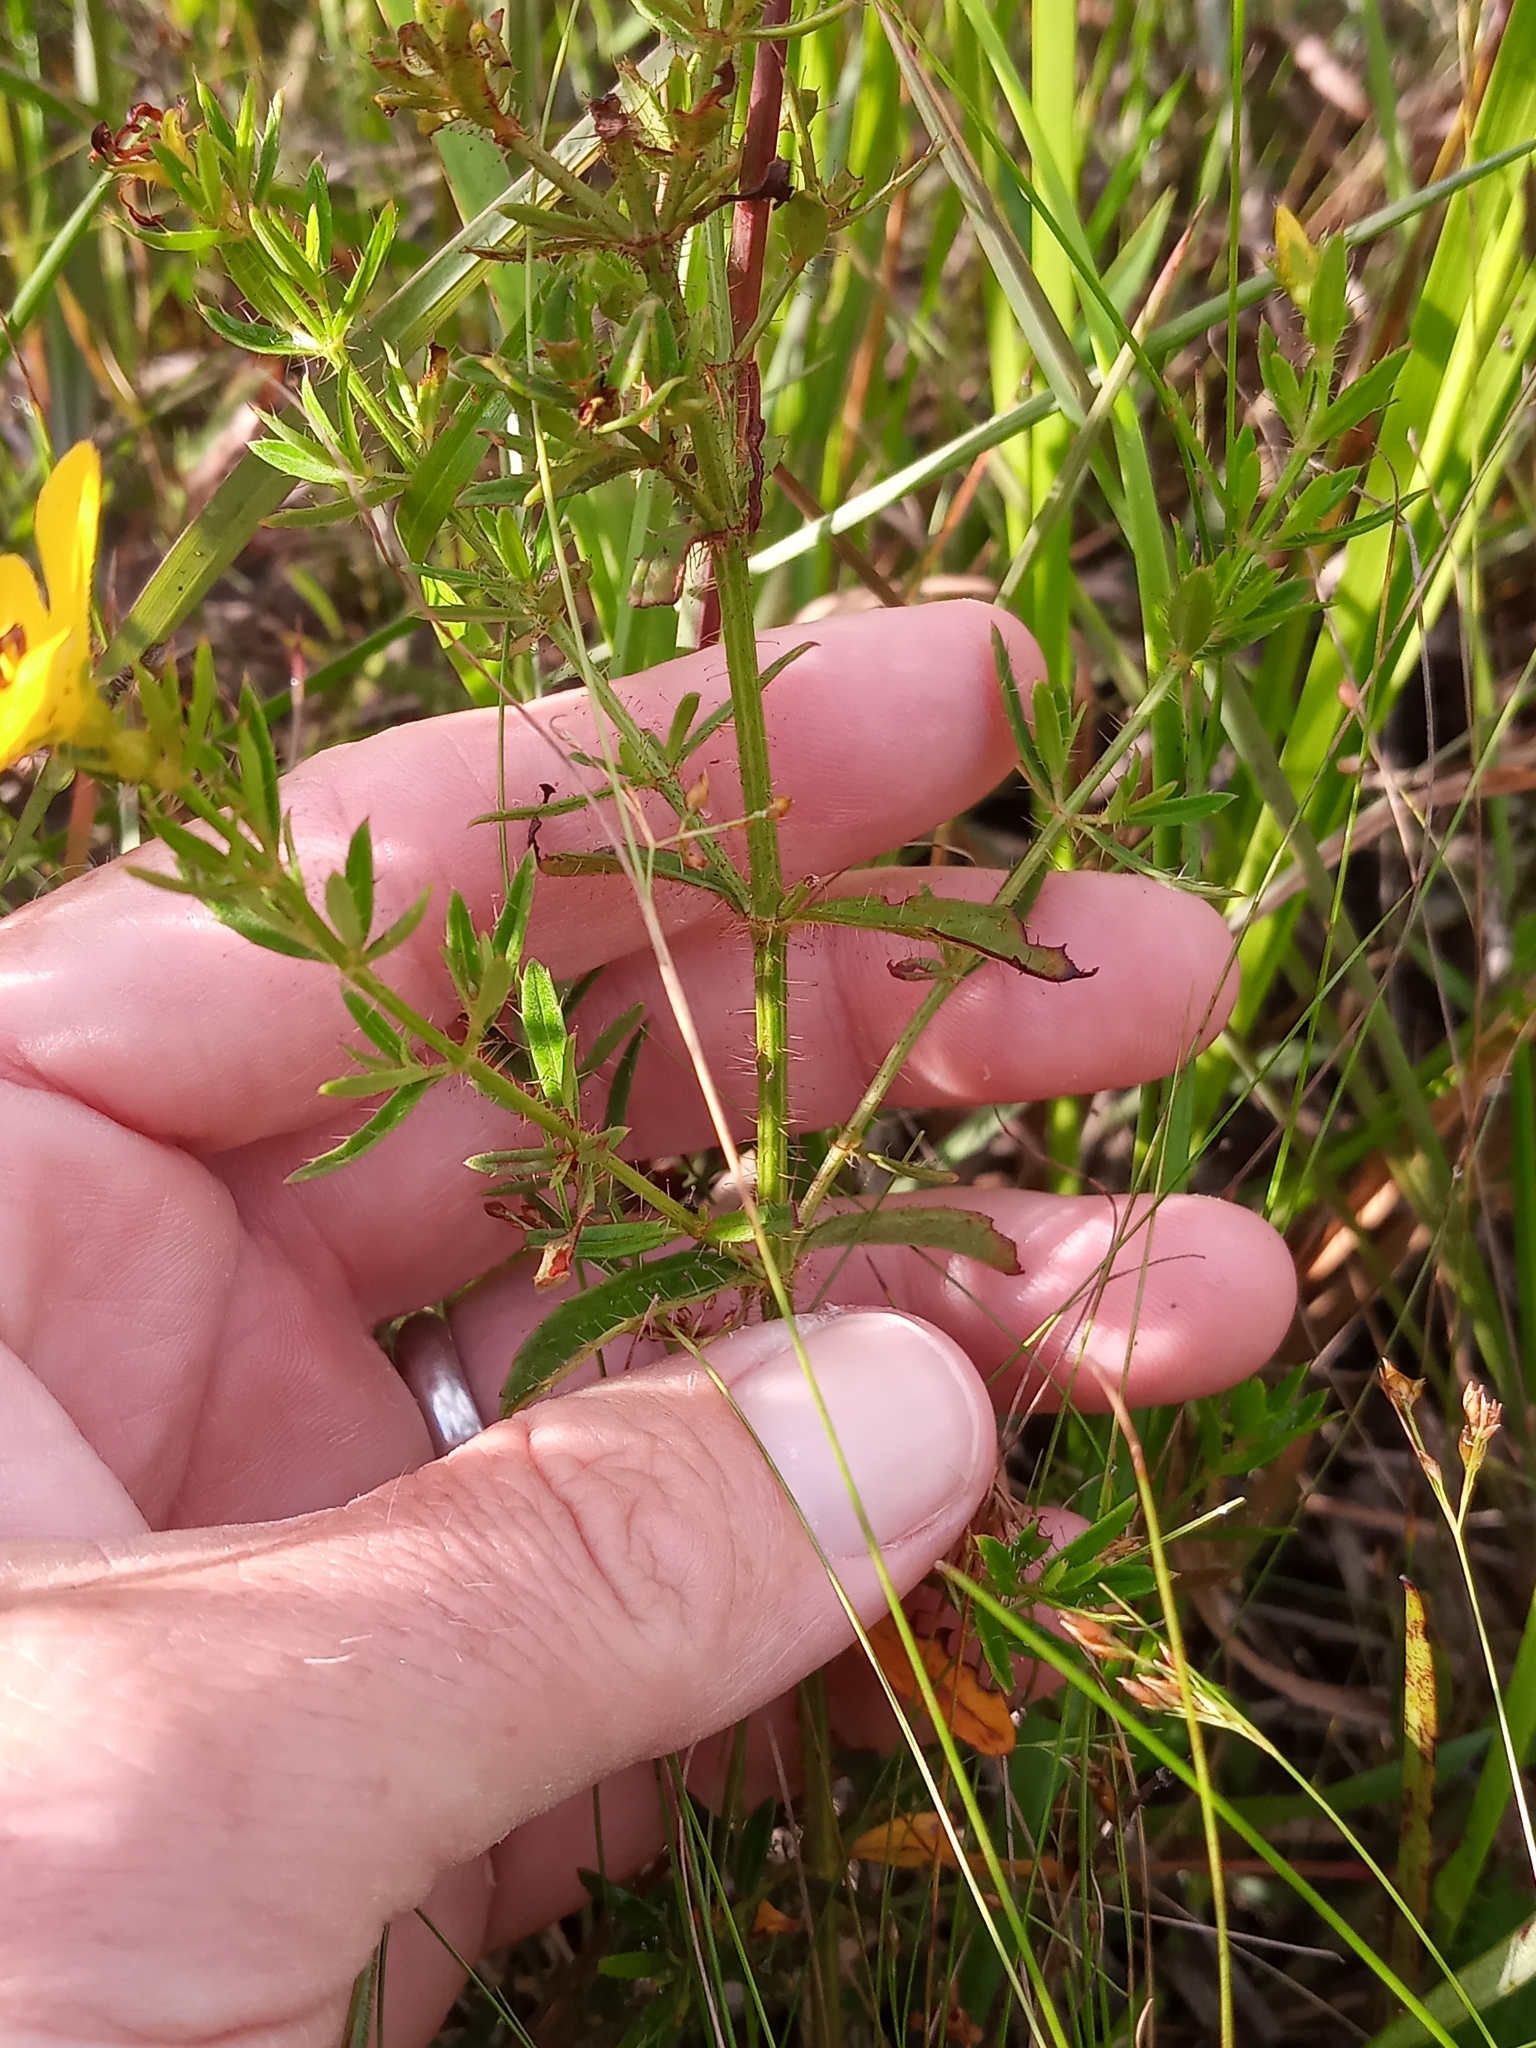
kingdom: Plantae
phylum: Tracheophyta
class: Magnoliopsida
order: Myrtales
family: Melastomataceae
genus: Rhexia
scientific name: Rhexia lutea
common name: Golden meadow-beauty
